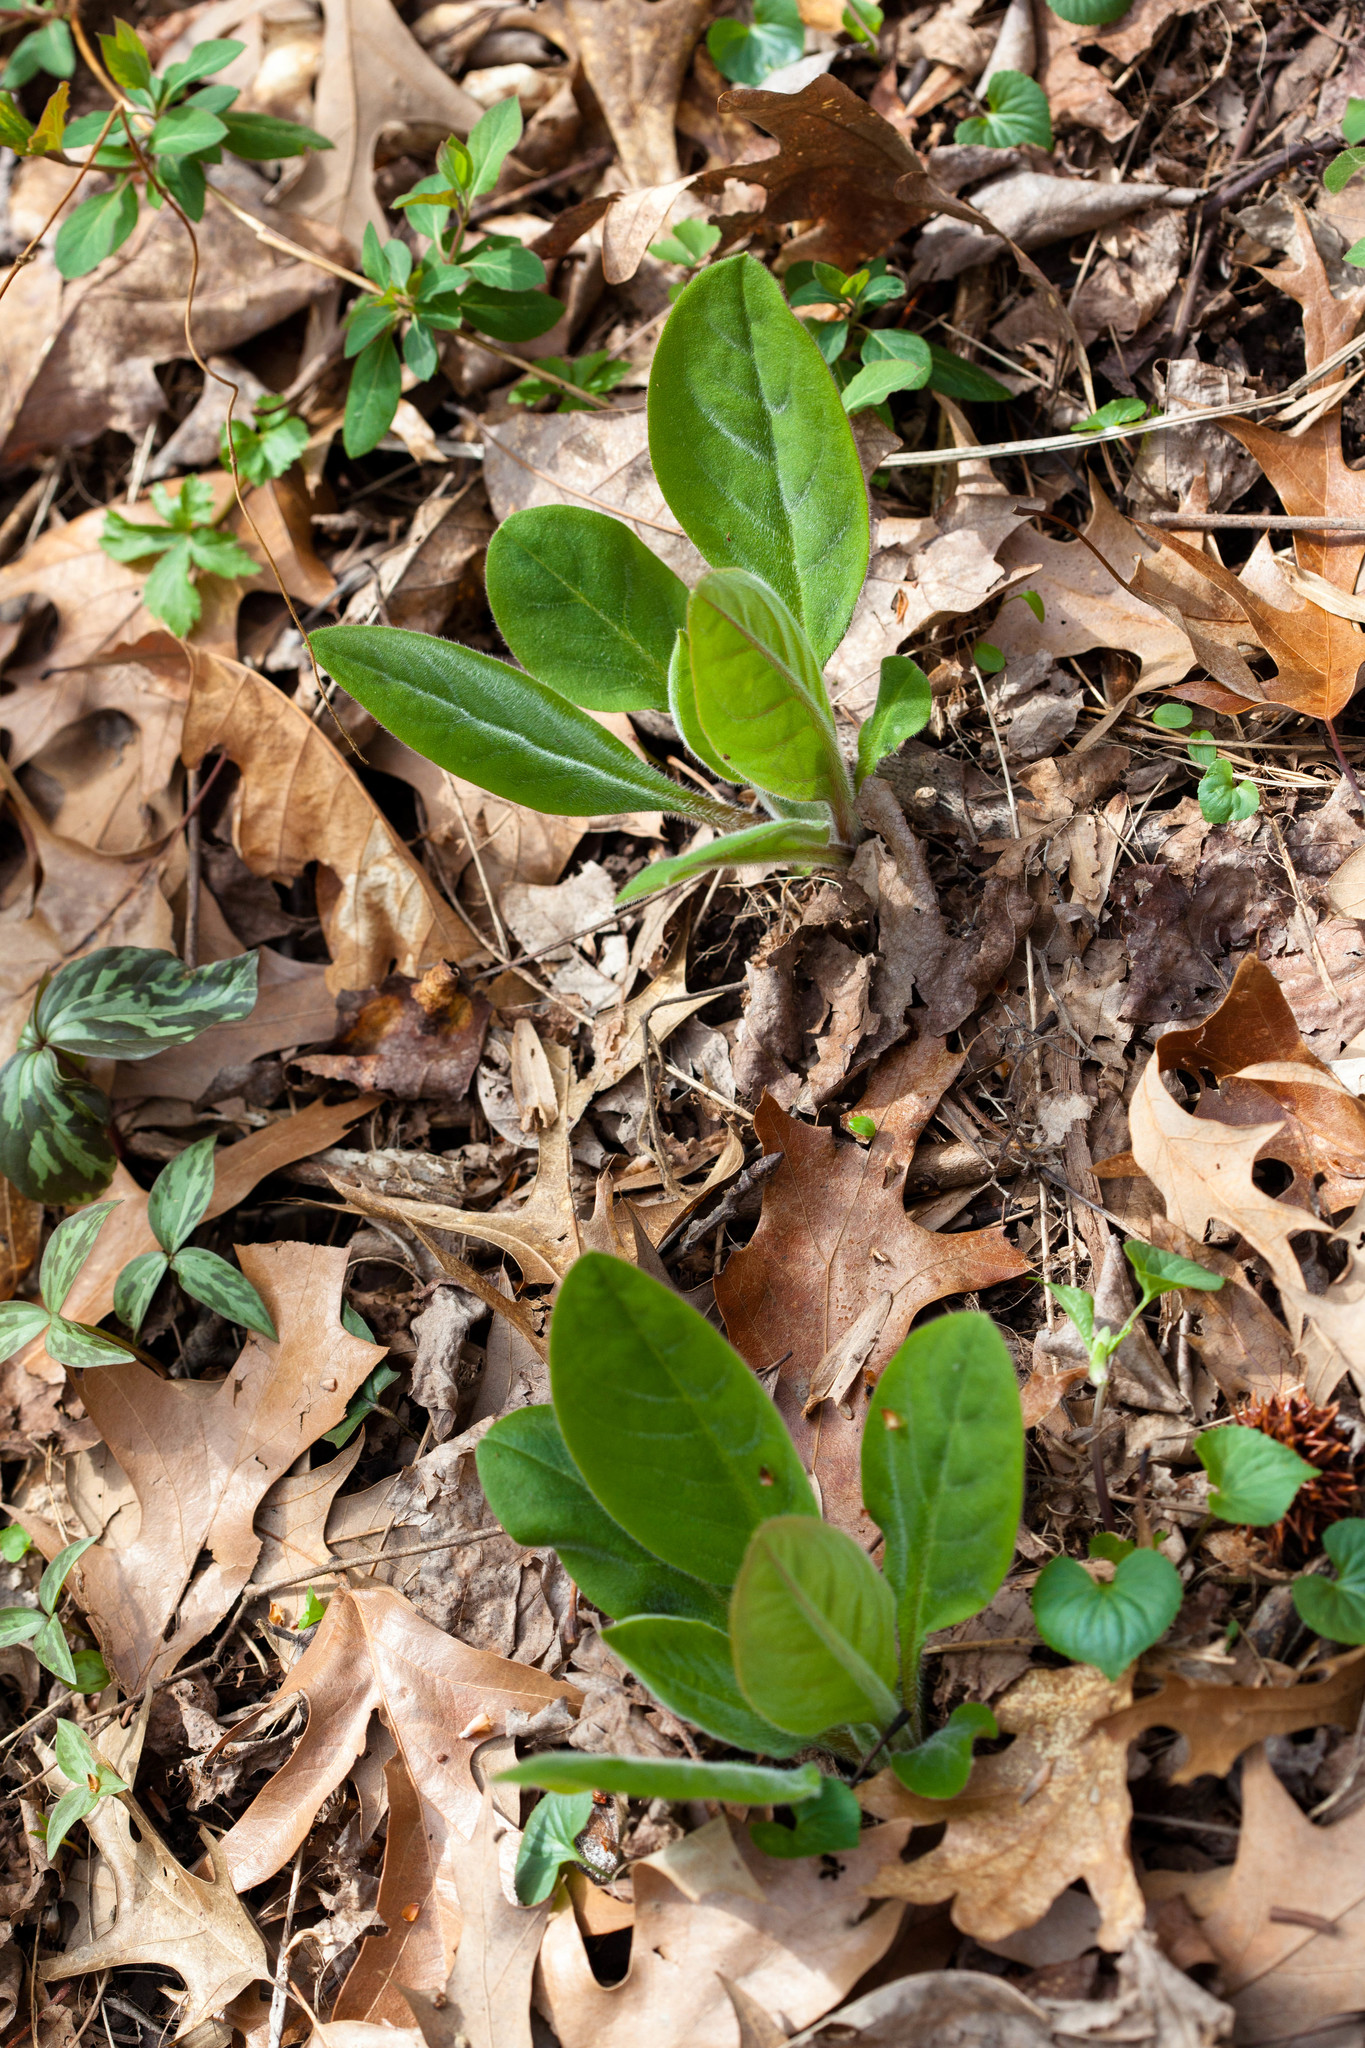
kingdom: Plantae
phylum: Tracheophyta
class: Magnoliopsida
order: Boraginales
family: Boraginaceae
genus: Andersonglossum
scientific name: Andersonglossum virginianum
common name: Wild comfrey
